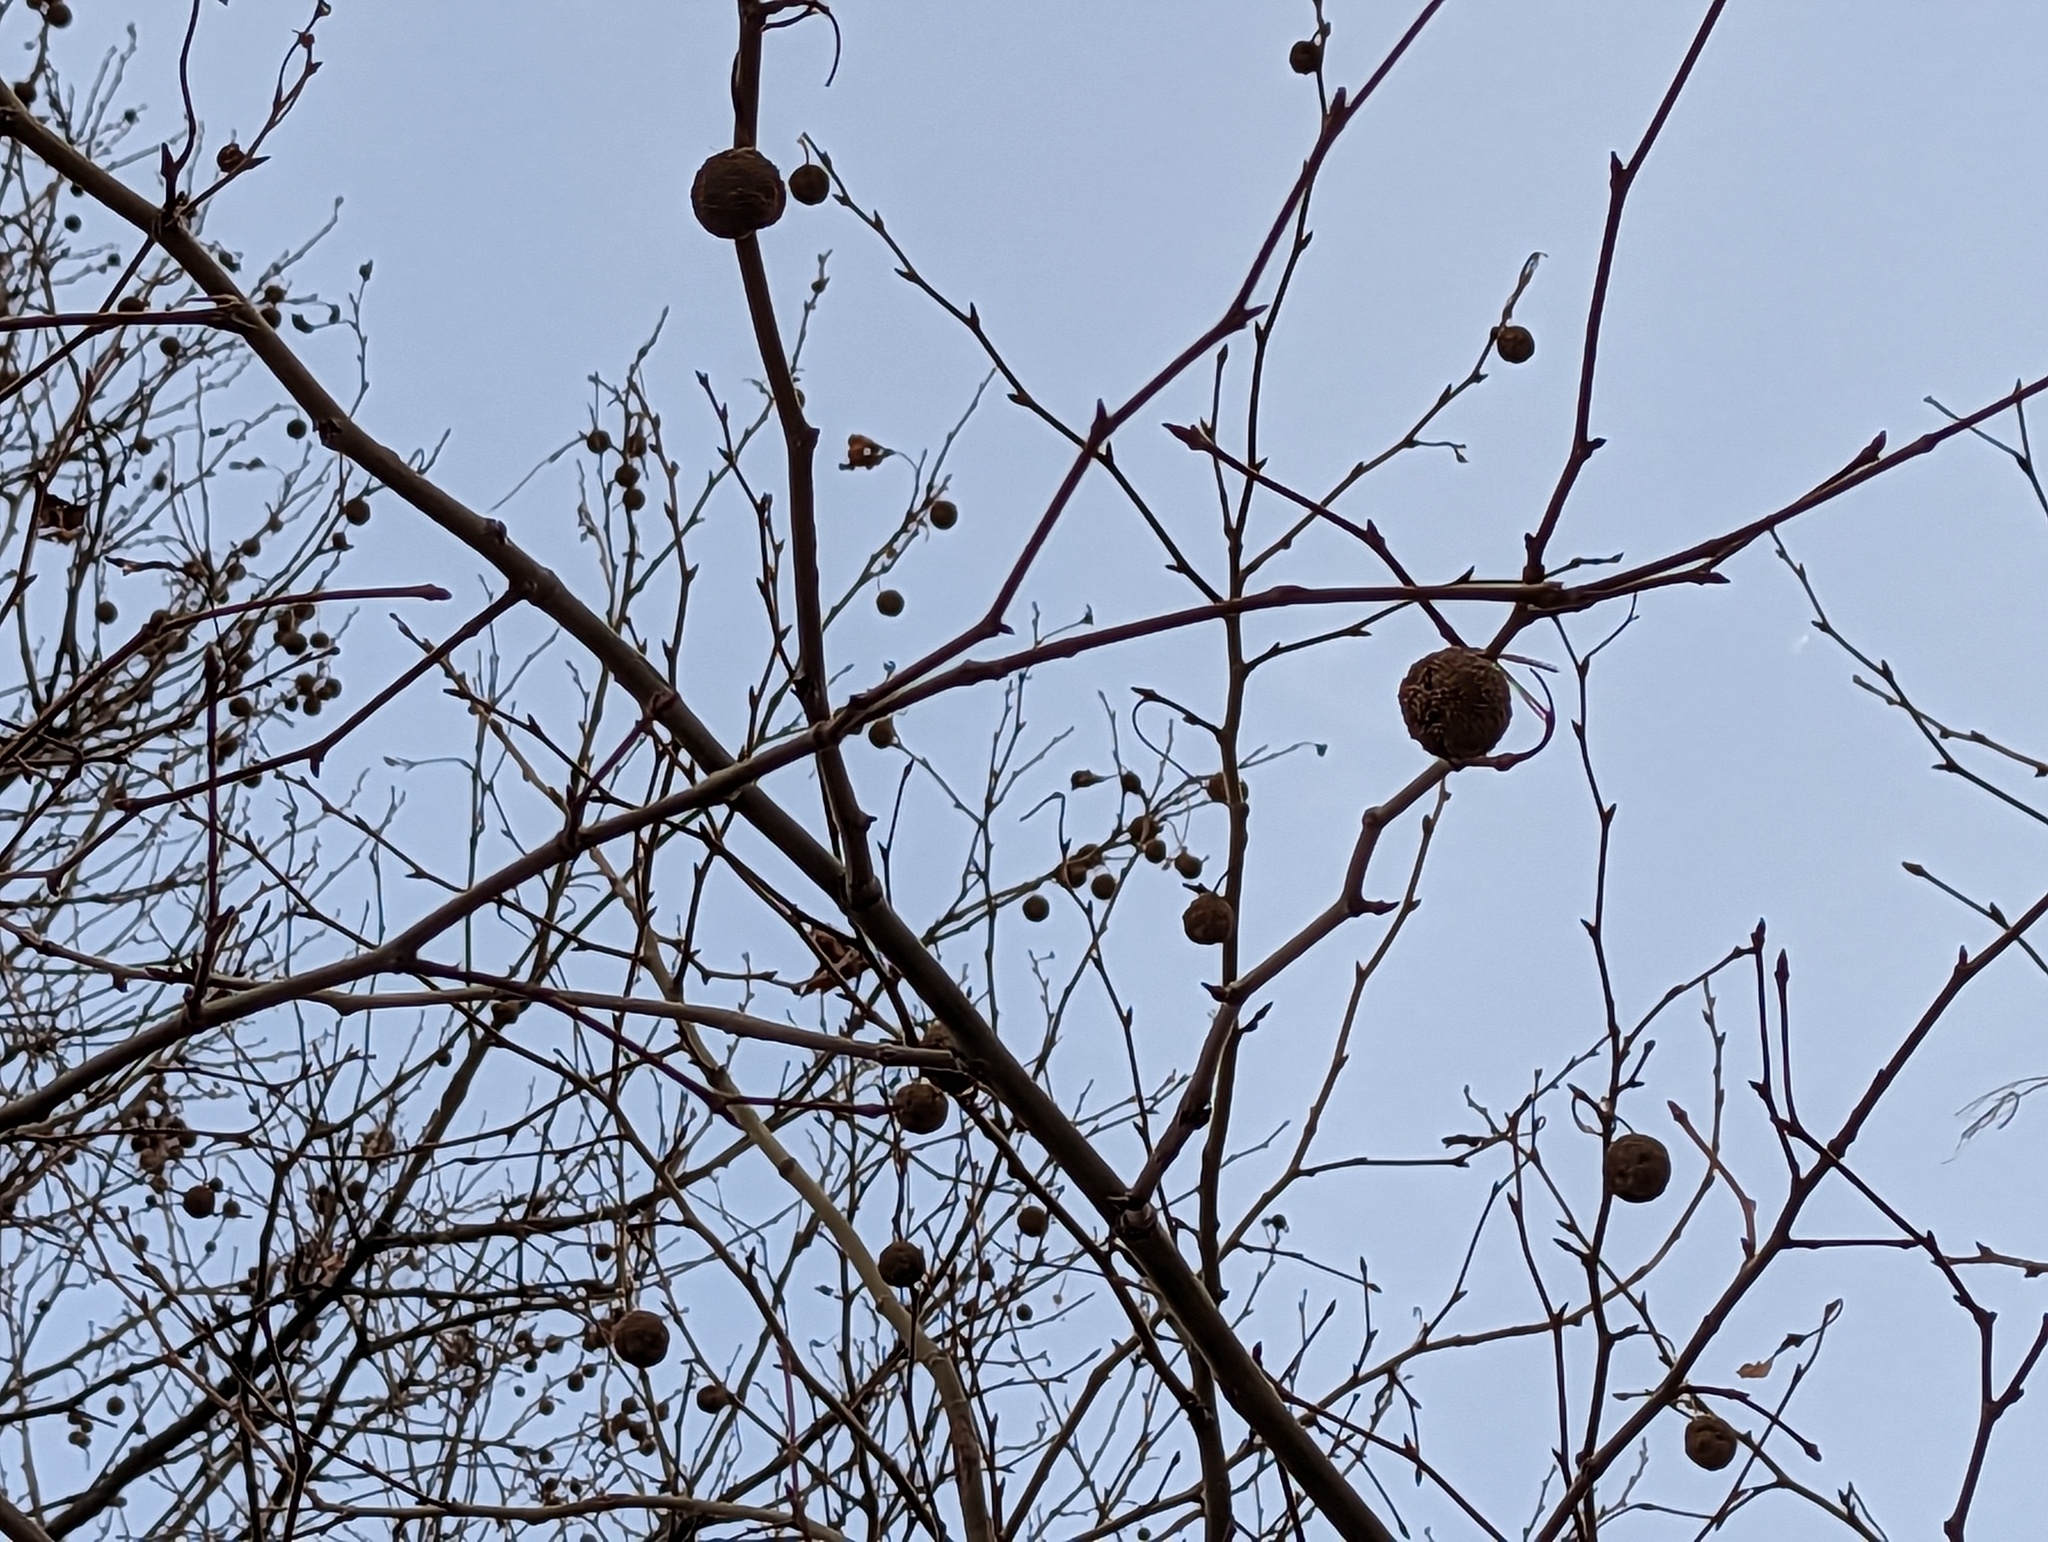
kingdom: Plantae
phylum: Tracheophyta
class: Magnoliopsida
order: Proteales
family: Platanaceae
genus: Platanus
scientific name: Platanus occidentalis
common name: American sycamore
